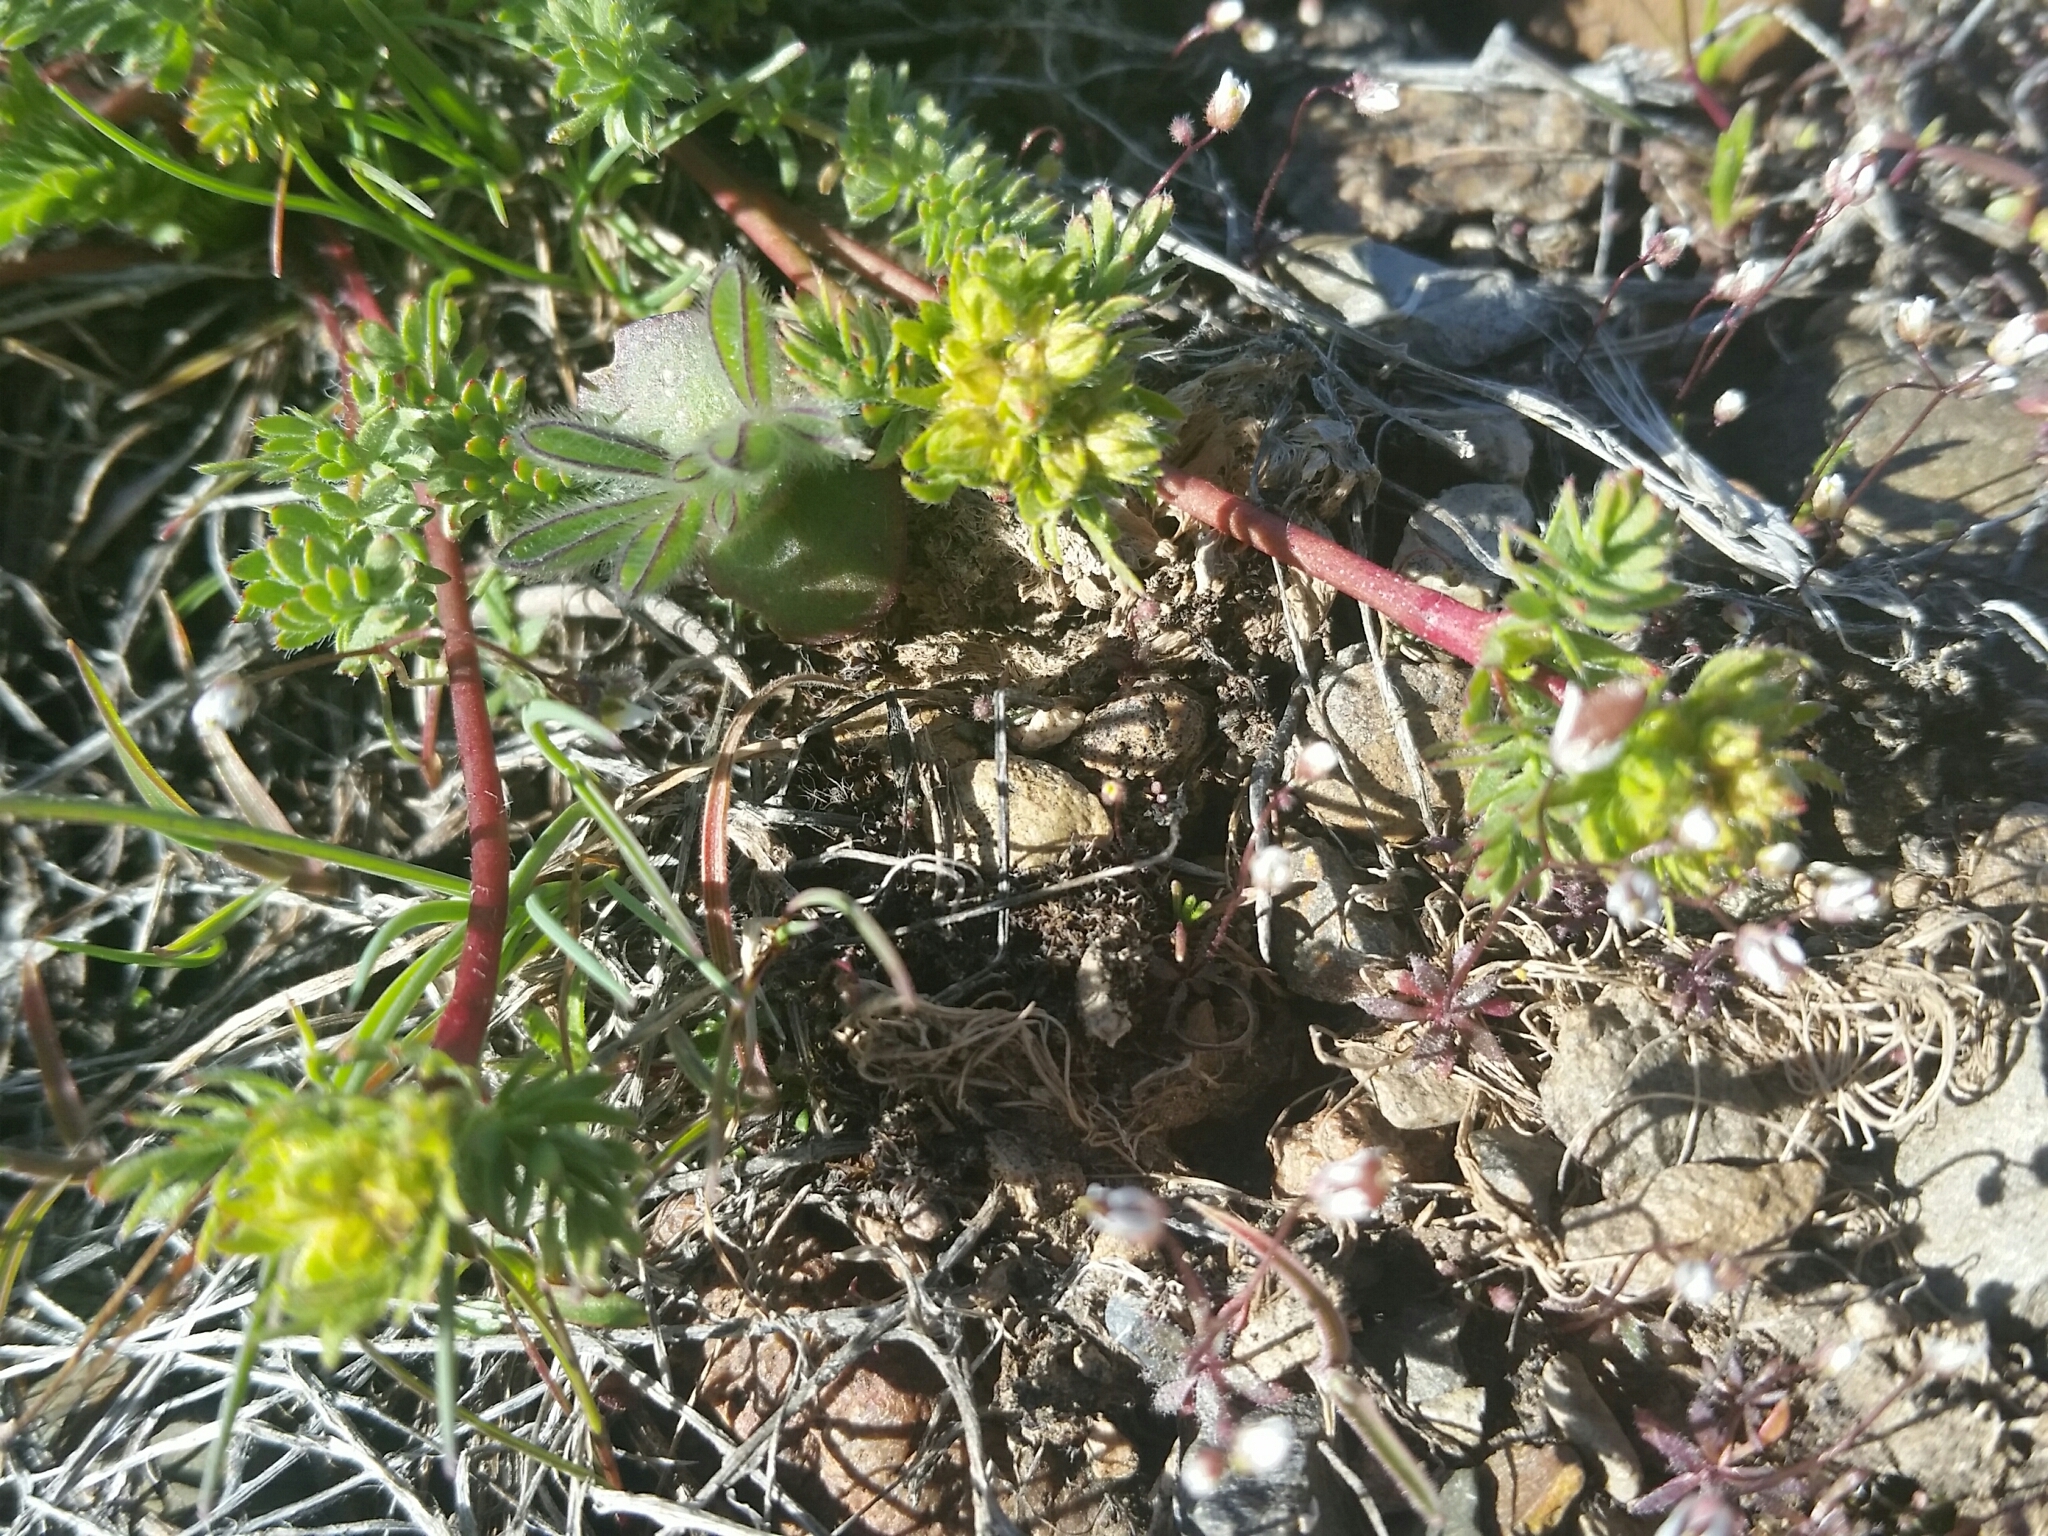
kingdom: Plantae
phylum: Tracheophyta
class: Magnoliopsida
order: Rosales
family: Rosaceae
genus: Potentilla
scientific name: Potentilla webberi
